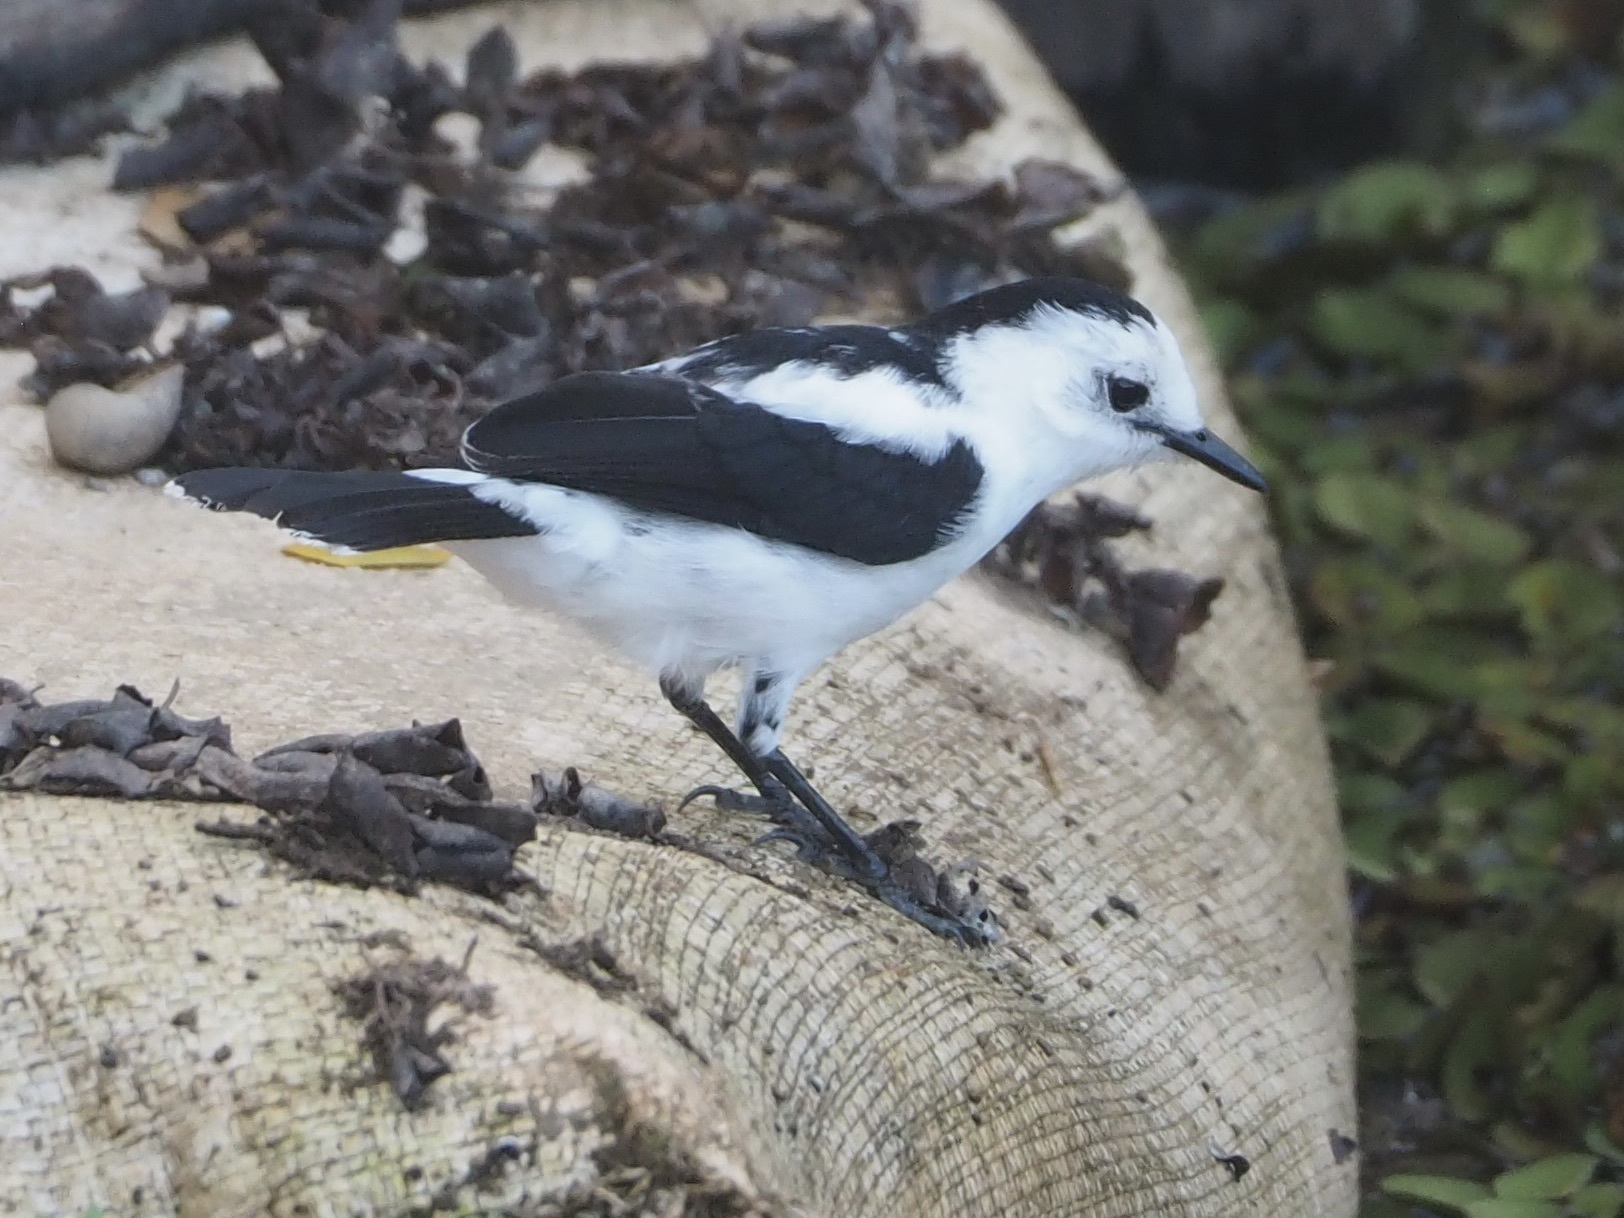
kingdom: Animalia
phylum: Chordata
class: Aves
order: Passeriformes
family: Tyrannidae
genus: Fluvicola
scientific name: Fluvicola pica
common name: Pied water-tyrant
